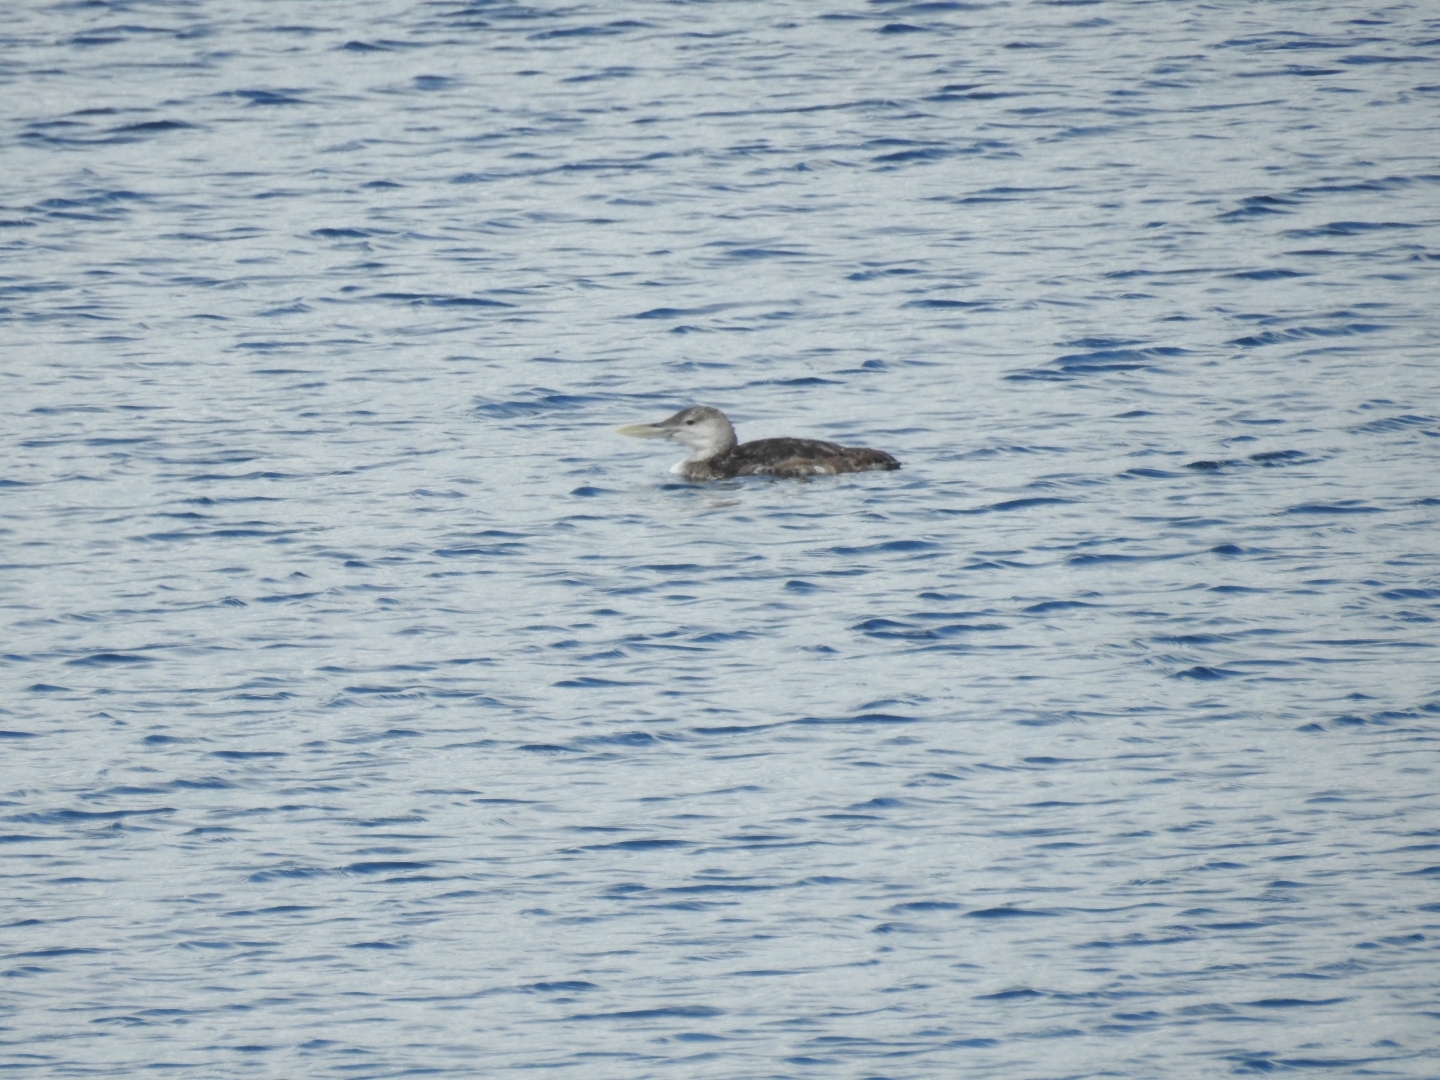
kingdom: Animalia
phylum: Chordata
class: Aves
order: Gaviiformes
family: Gaviidae
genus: Gavia
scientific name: Gavia adamsii
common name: Yellow-billed loon
